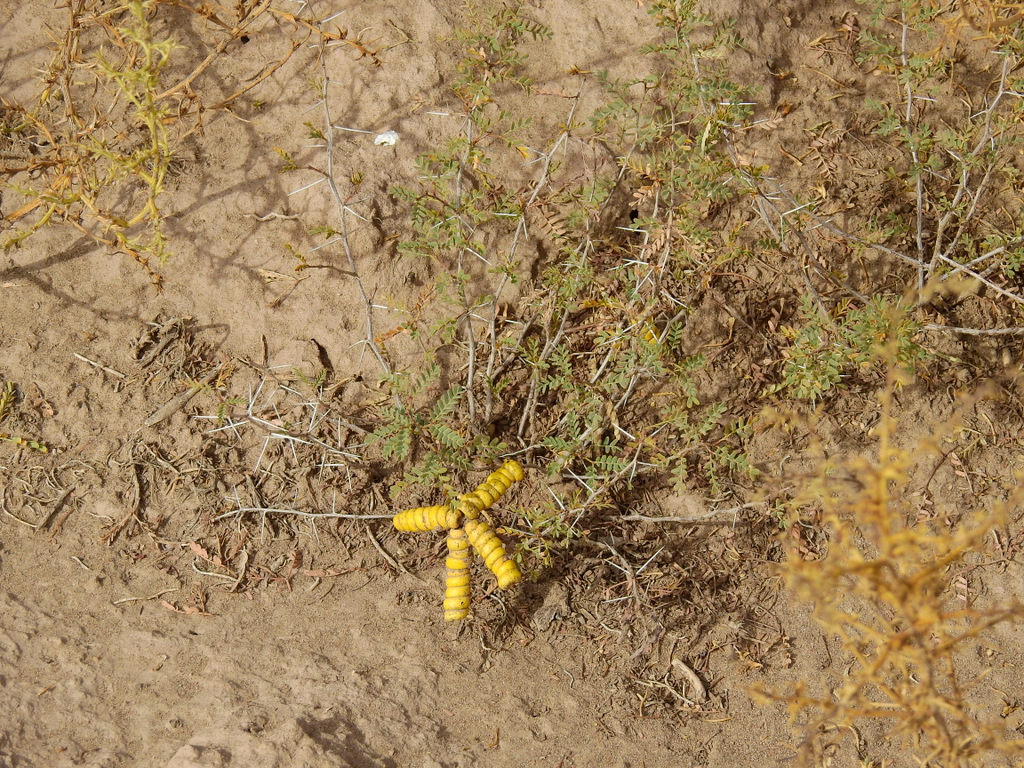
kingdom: Plantae
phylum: Tracheophyta
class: Magnoliopsida
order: Fabales
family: Fabaceae
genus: Prosopis
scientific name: Prosopis strombulifera
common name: Creeping mesquite
